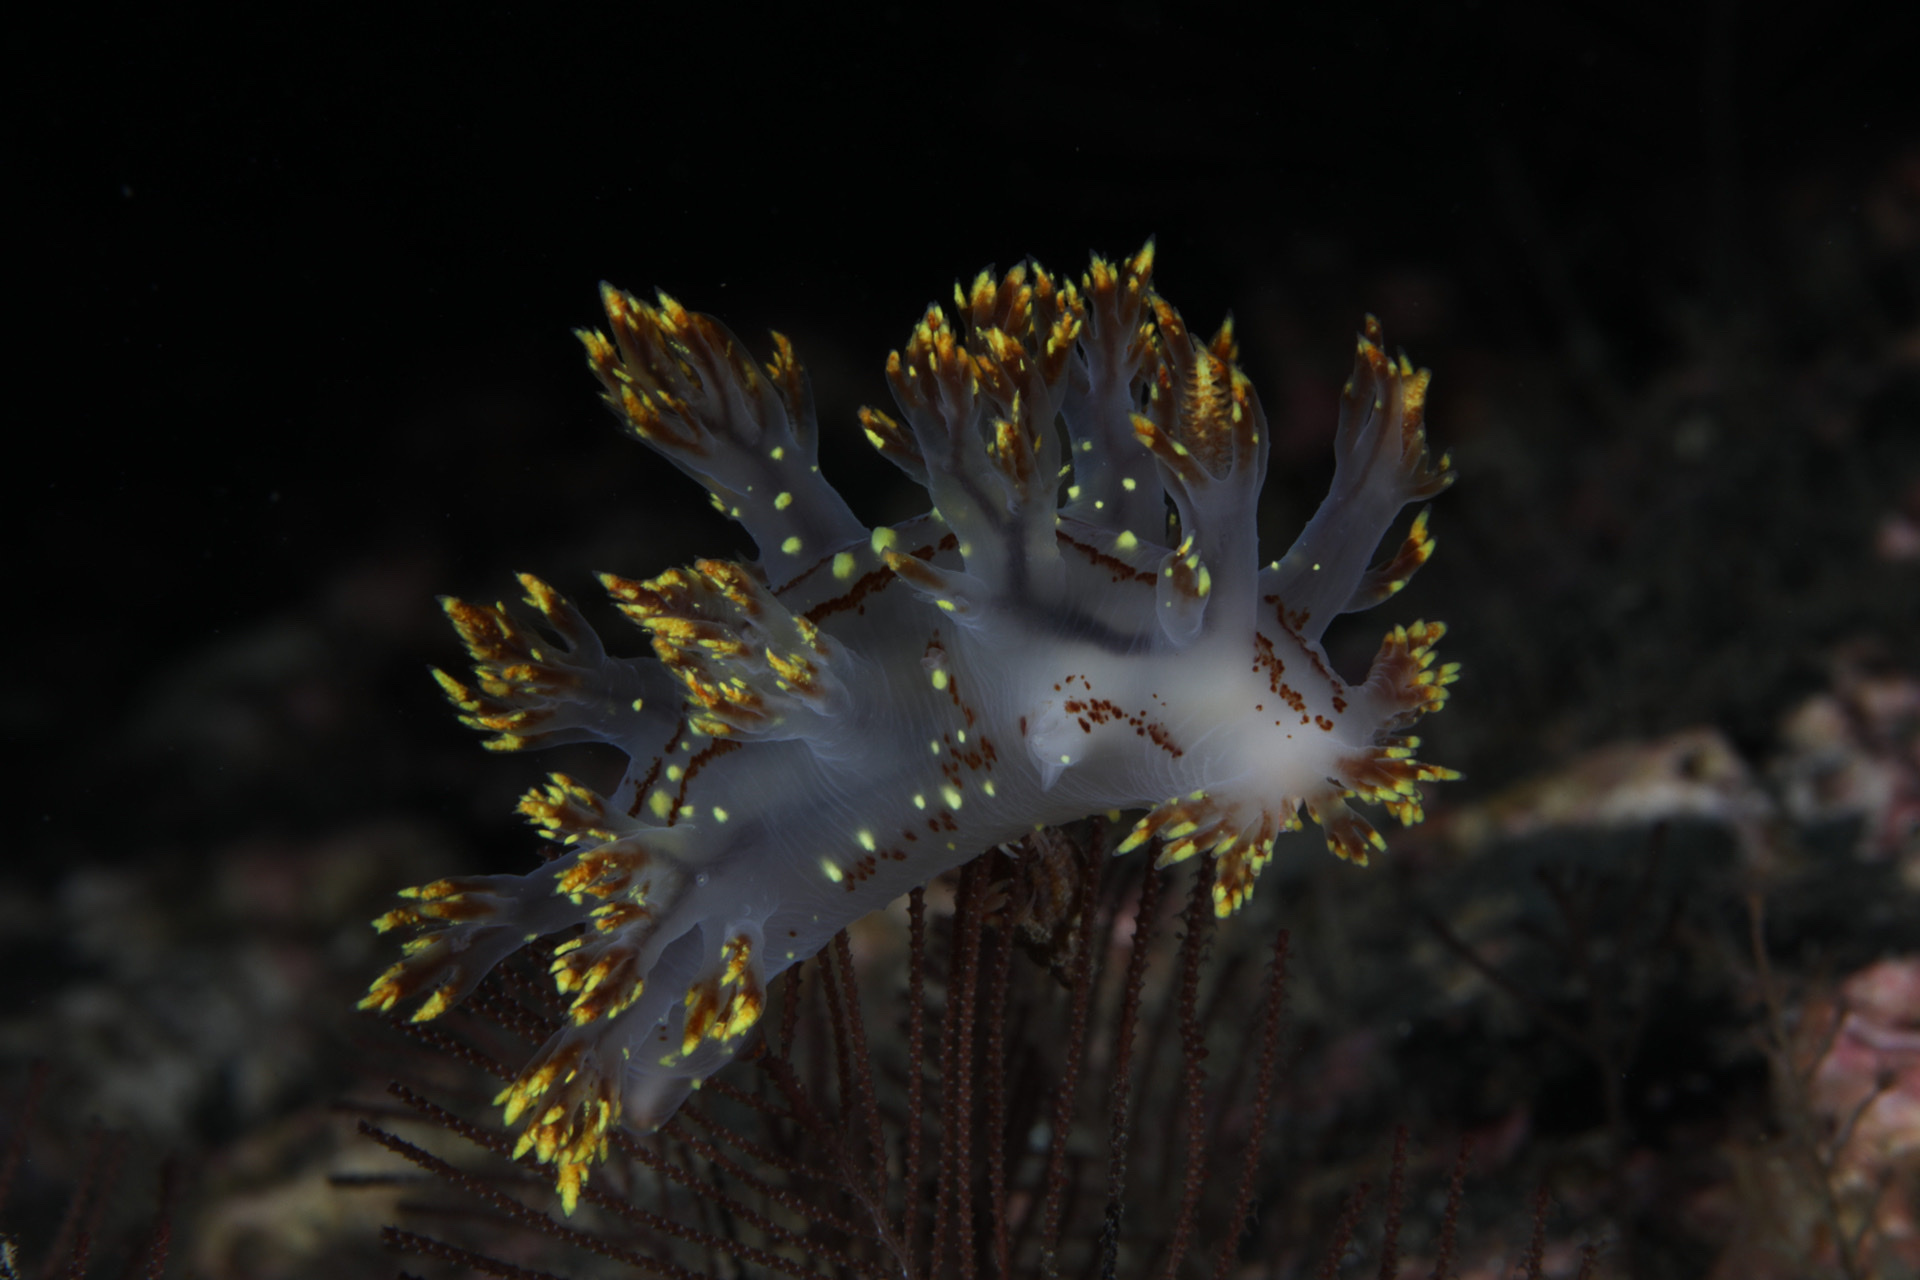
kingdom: Animalia
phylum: Mollusca
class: Gastropoda
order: Nudibranchia
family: Dendronotidae
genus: Dendronotus
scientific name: Dendronotus yrjargul
